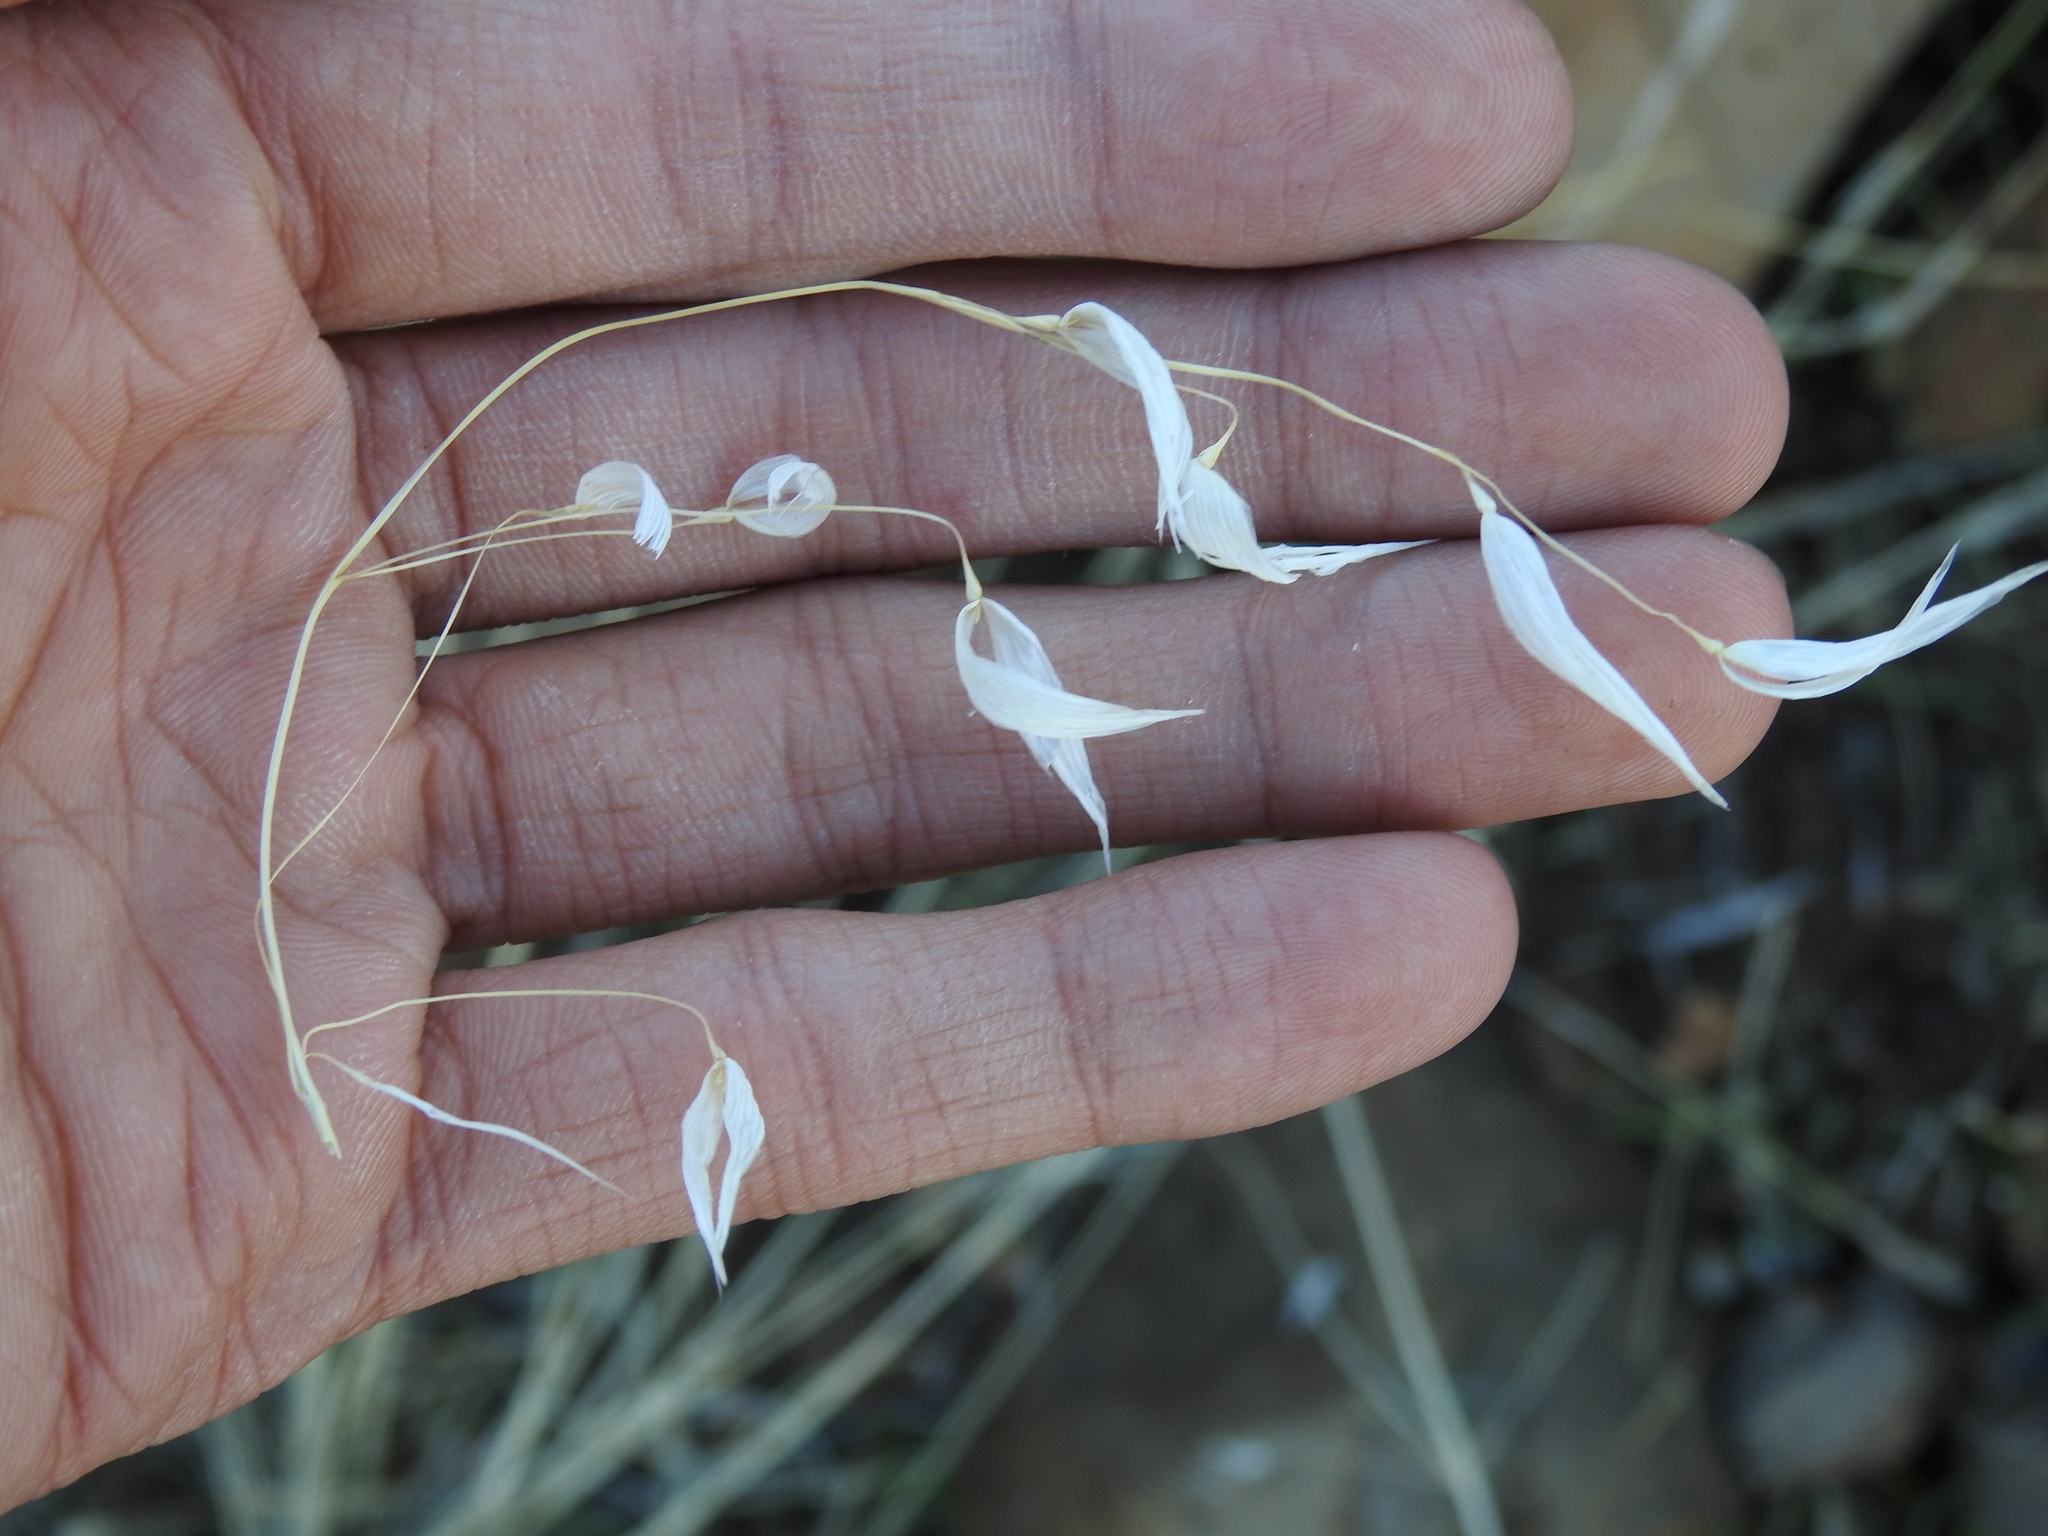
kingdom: Plantae
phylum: Tracheophyta
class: Liliopsida
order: Poales
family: Poaceae
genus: Avena
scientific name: Avena fatua
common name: Wild oat
